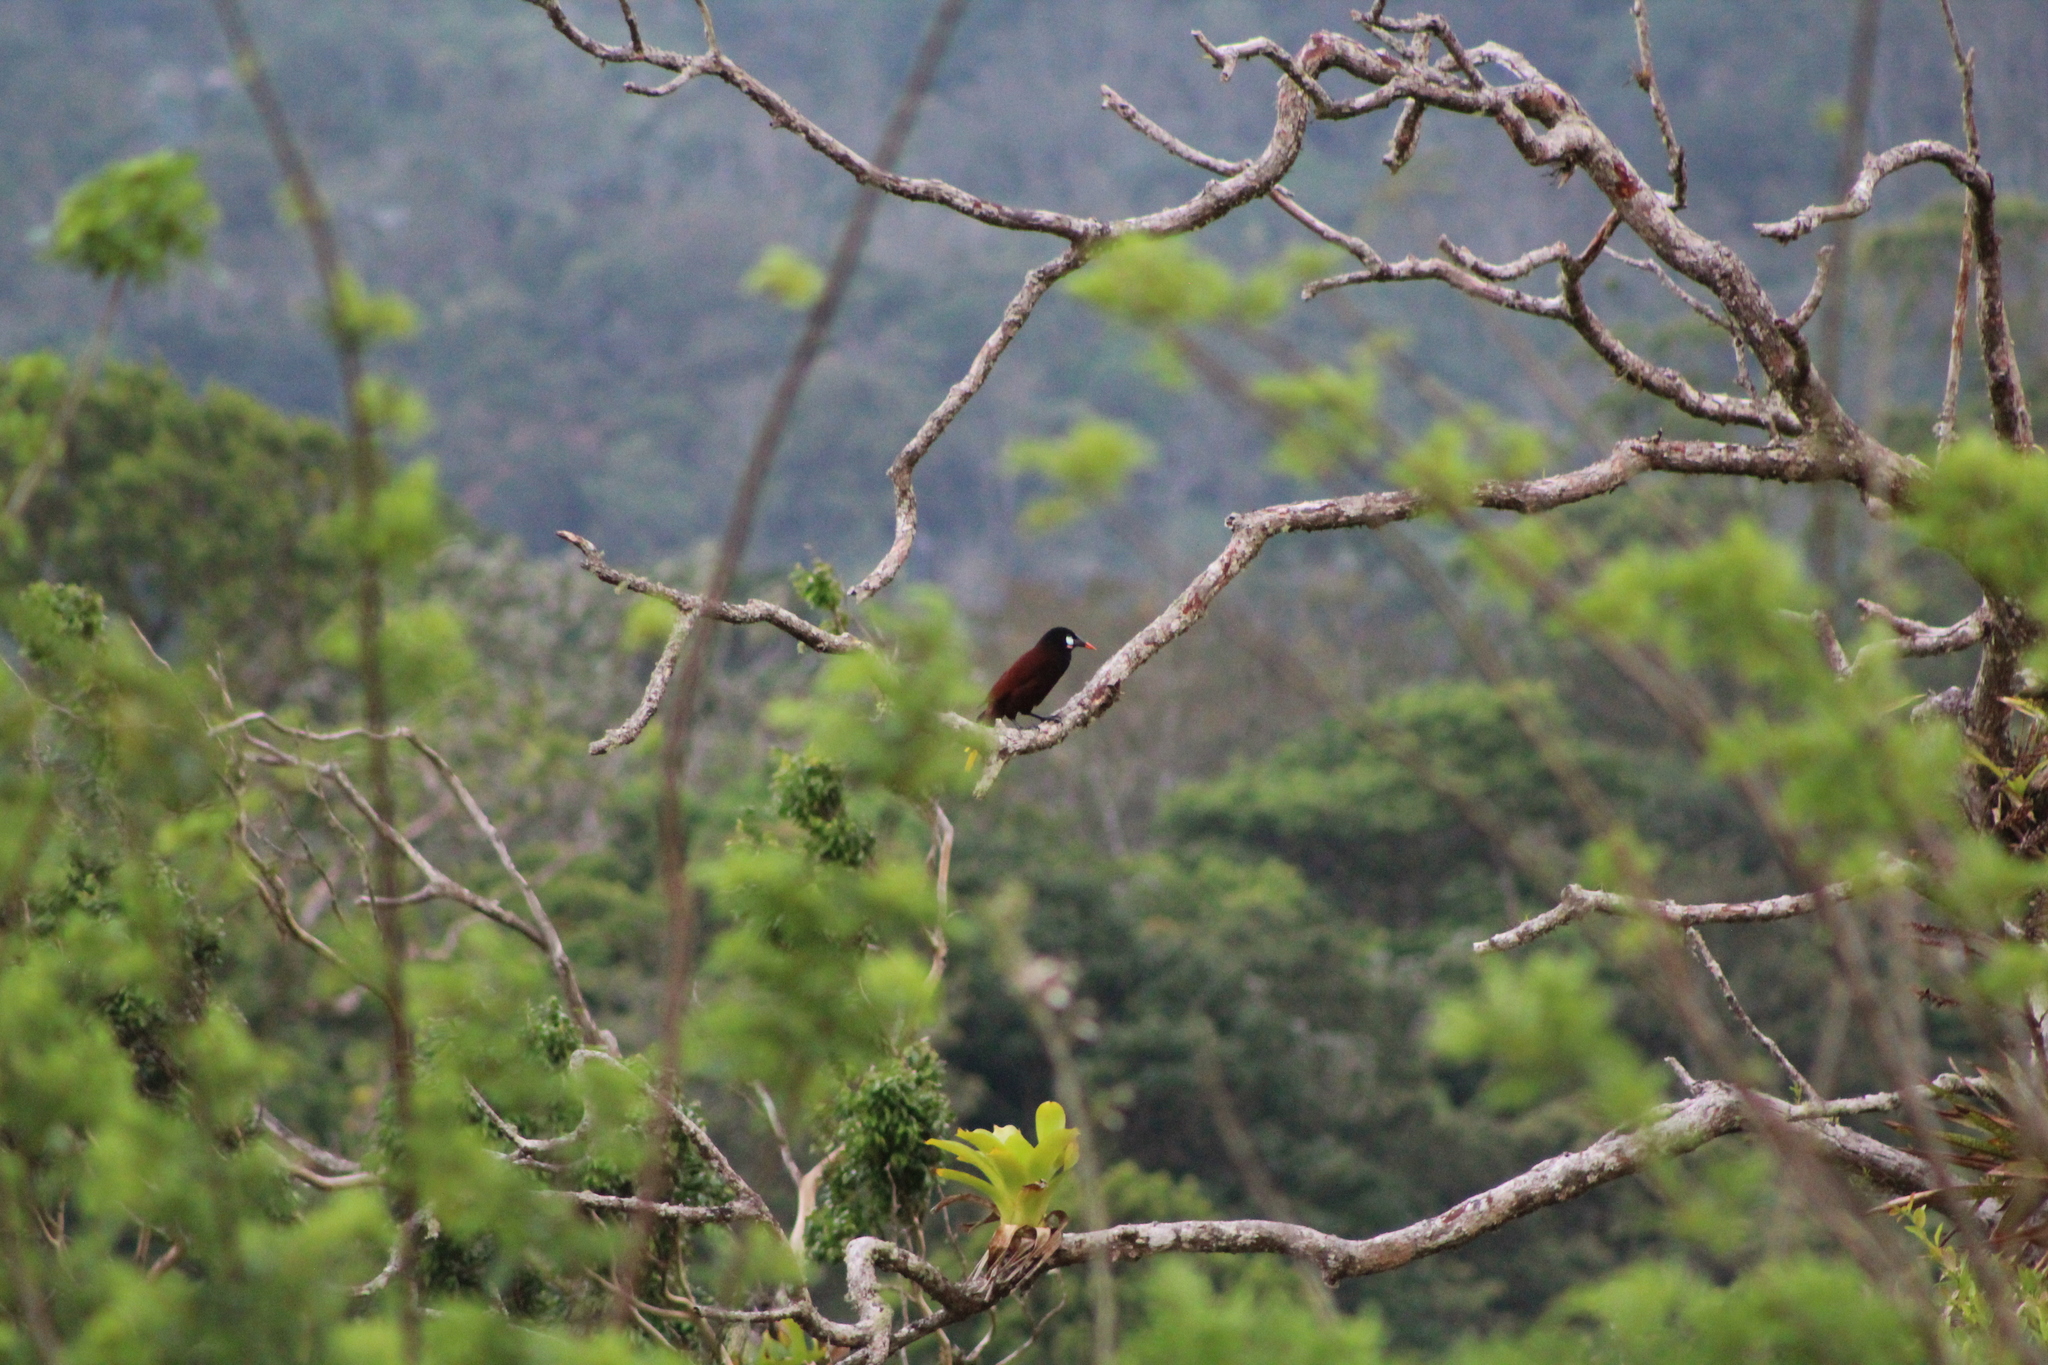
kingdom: Animalia
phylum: Chordata
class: Aves
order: Passeriformes
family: Icteridae
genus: Psarocolius
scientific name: Psarocolius montezuma
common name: Montezuma oropendola
